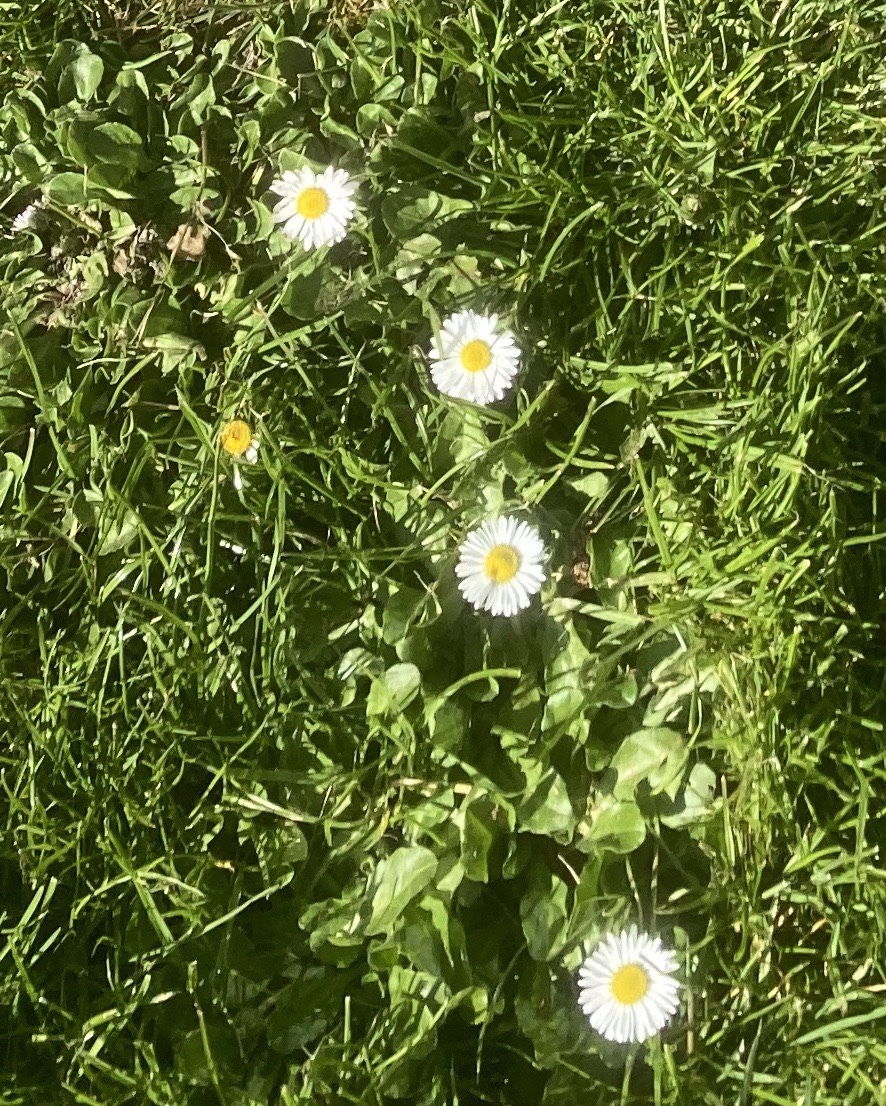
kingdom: Plantae
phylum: Tracheophyta
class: Magnoliopsida
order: Asterales
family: Asteraceae
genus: Bellis
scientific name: Bellis perennis
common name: Lawndaisy
